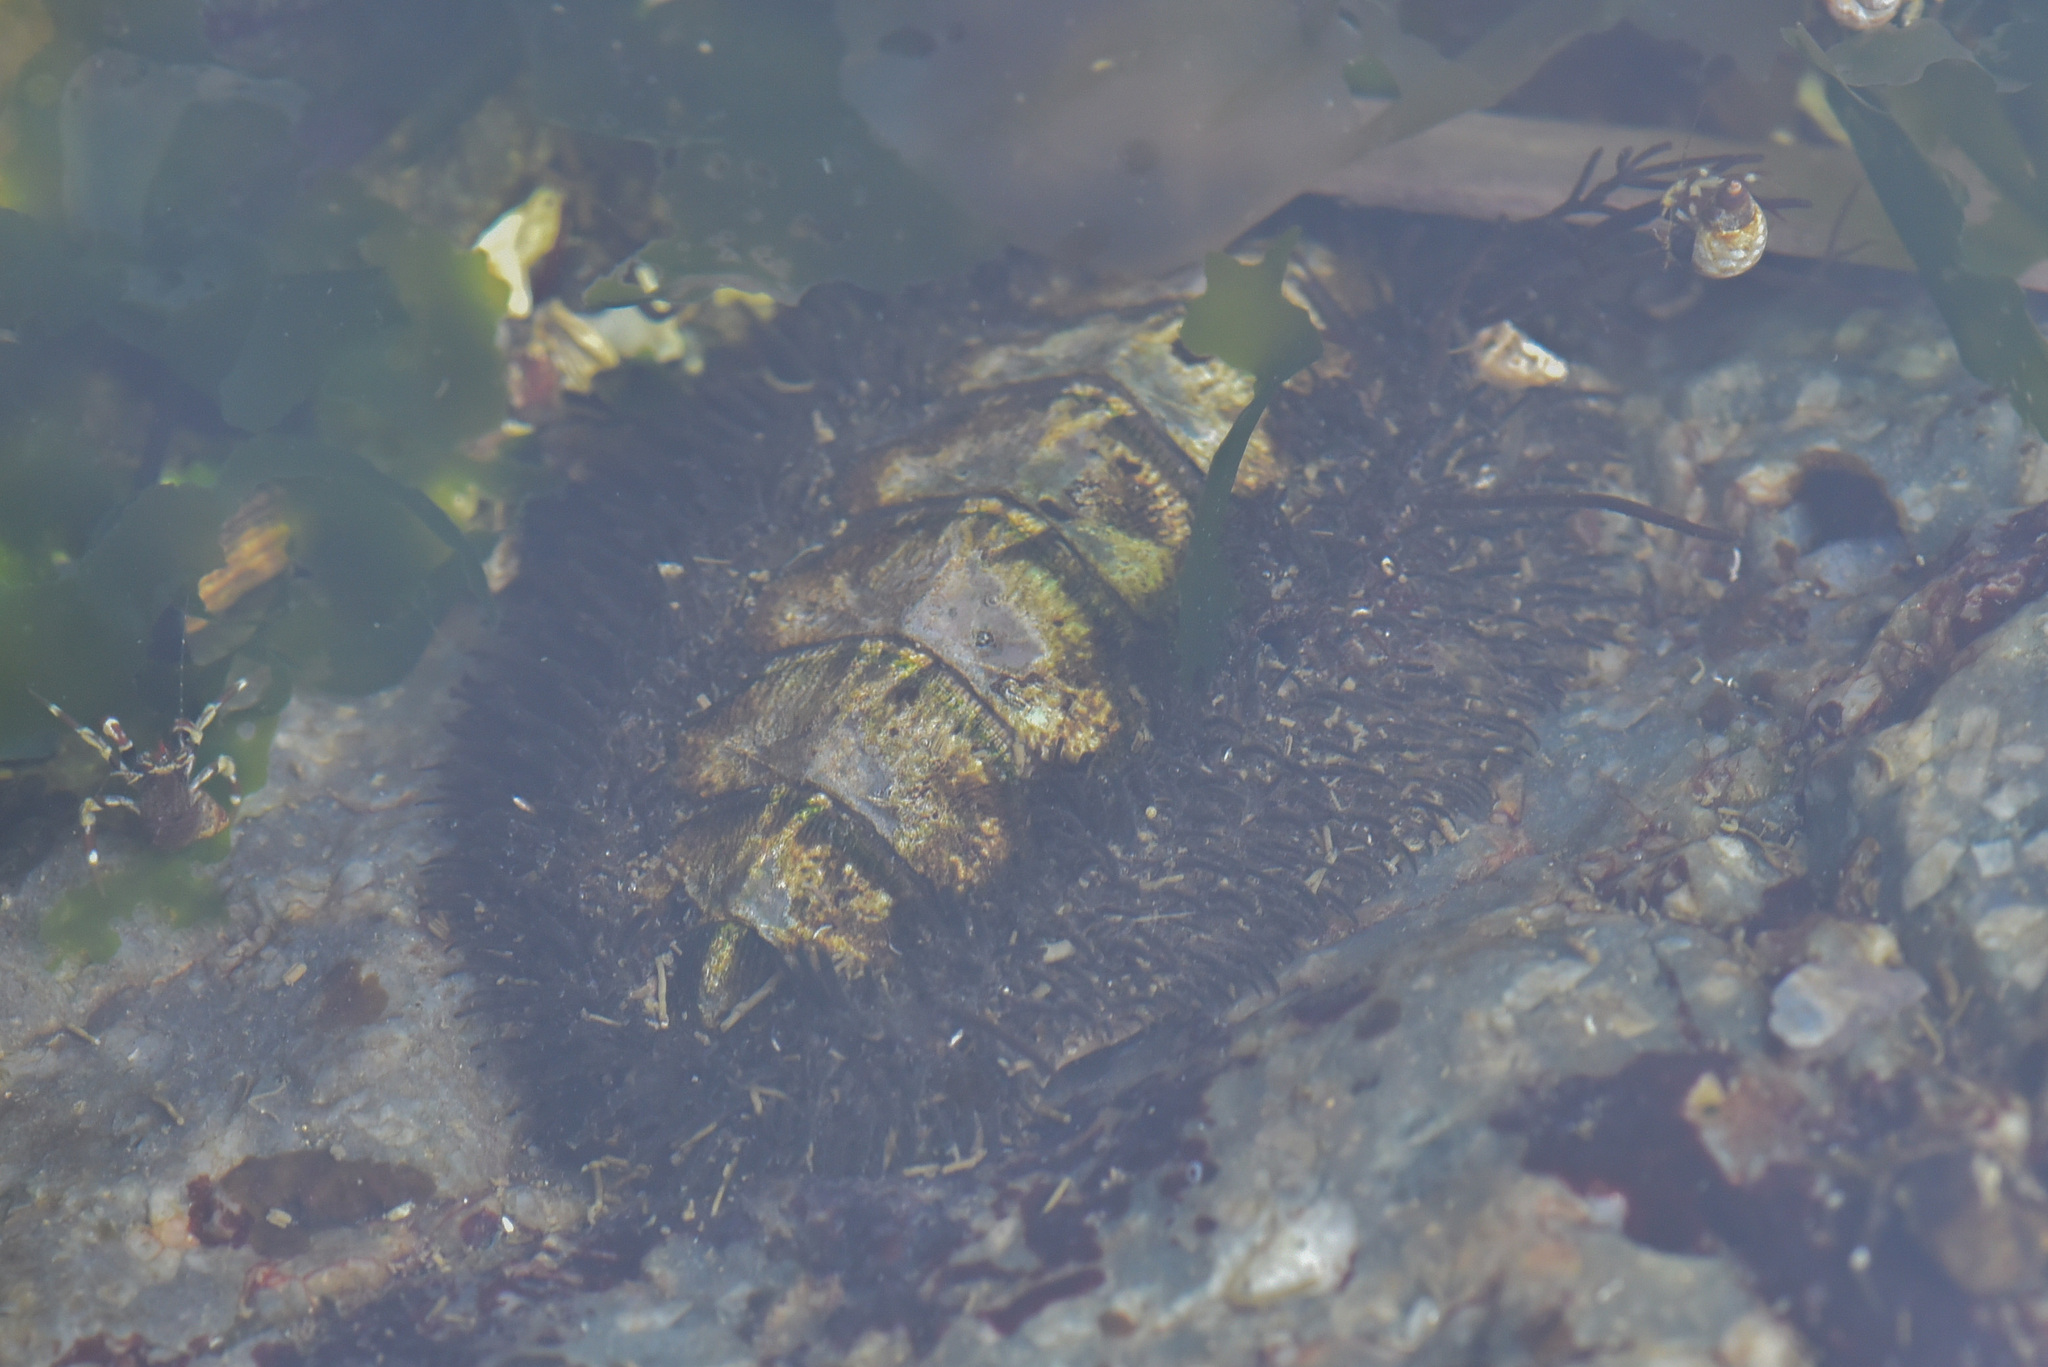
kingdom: Animalia
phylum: Mollusca
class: Polyplacophora
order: Chitonida
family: Mopaliidae
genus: Mopalia
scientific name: Mopalia muscosa
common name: Mossy chiton
